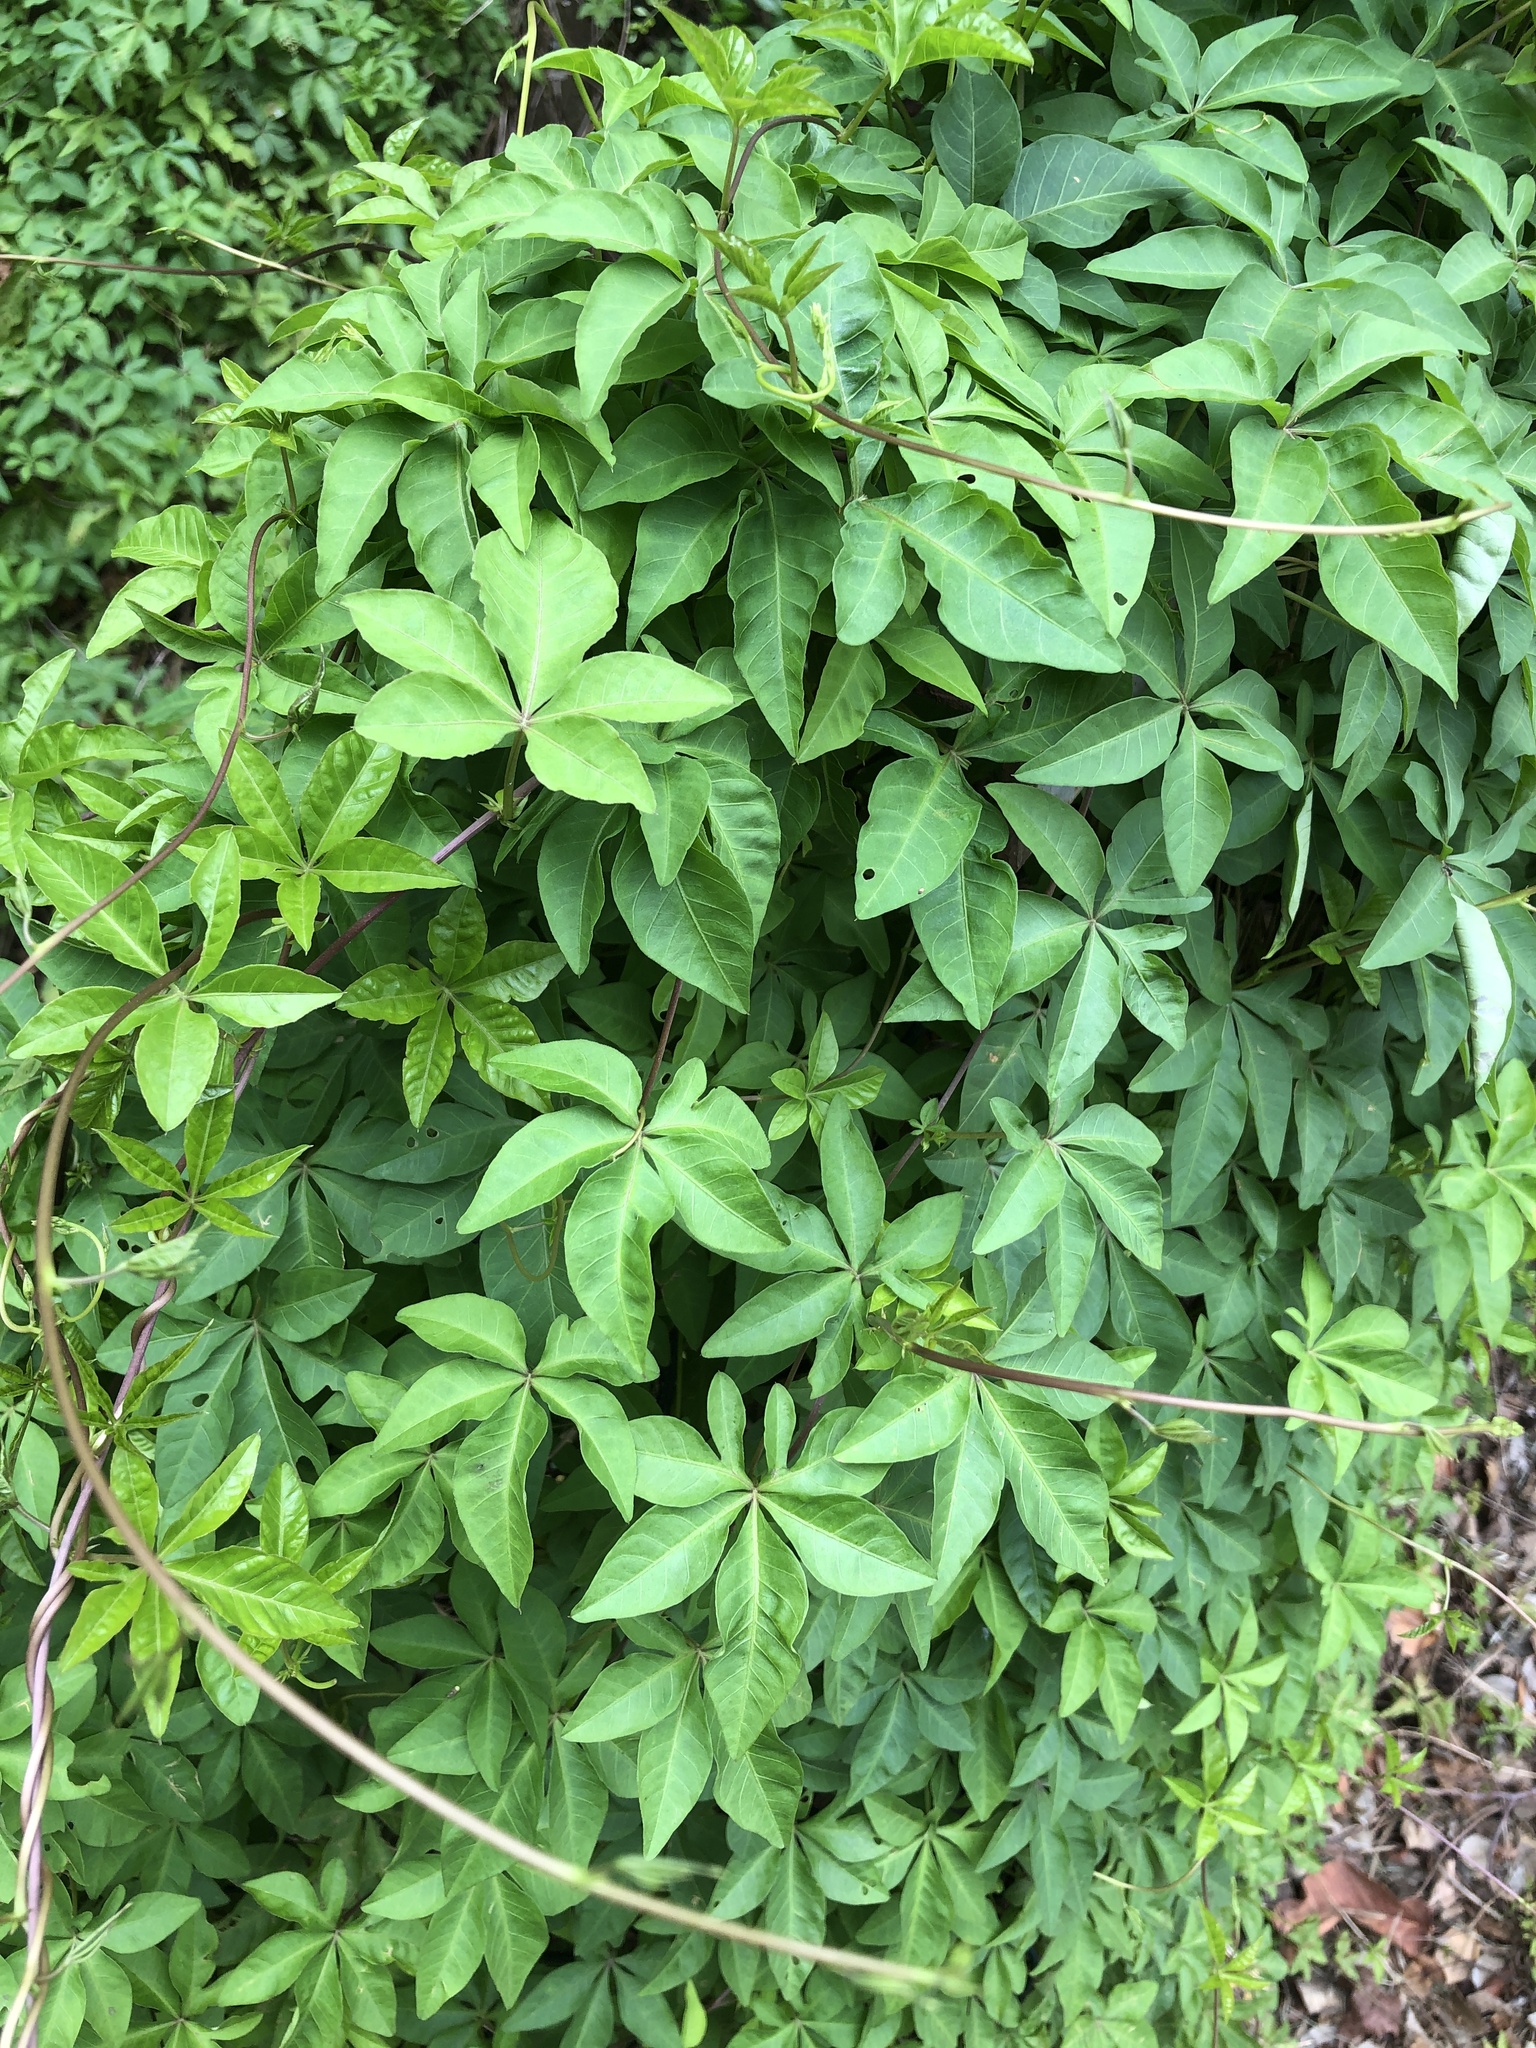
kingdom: Plantae
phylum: Tracheophyta
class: Magnoliopsida
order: Solanales
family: Convolvulaceae
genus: Ipomoea
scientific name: Ipomoea cairica
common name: Mile a minute vine
